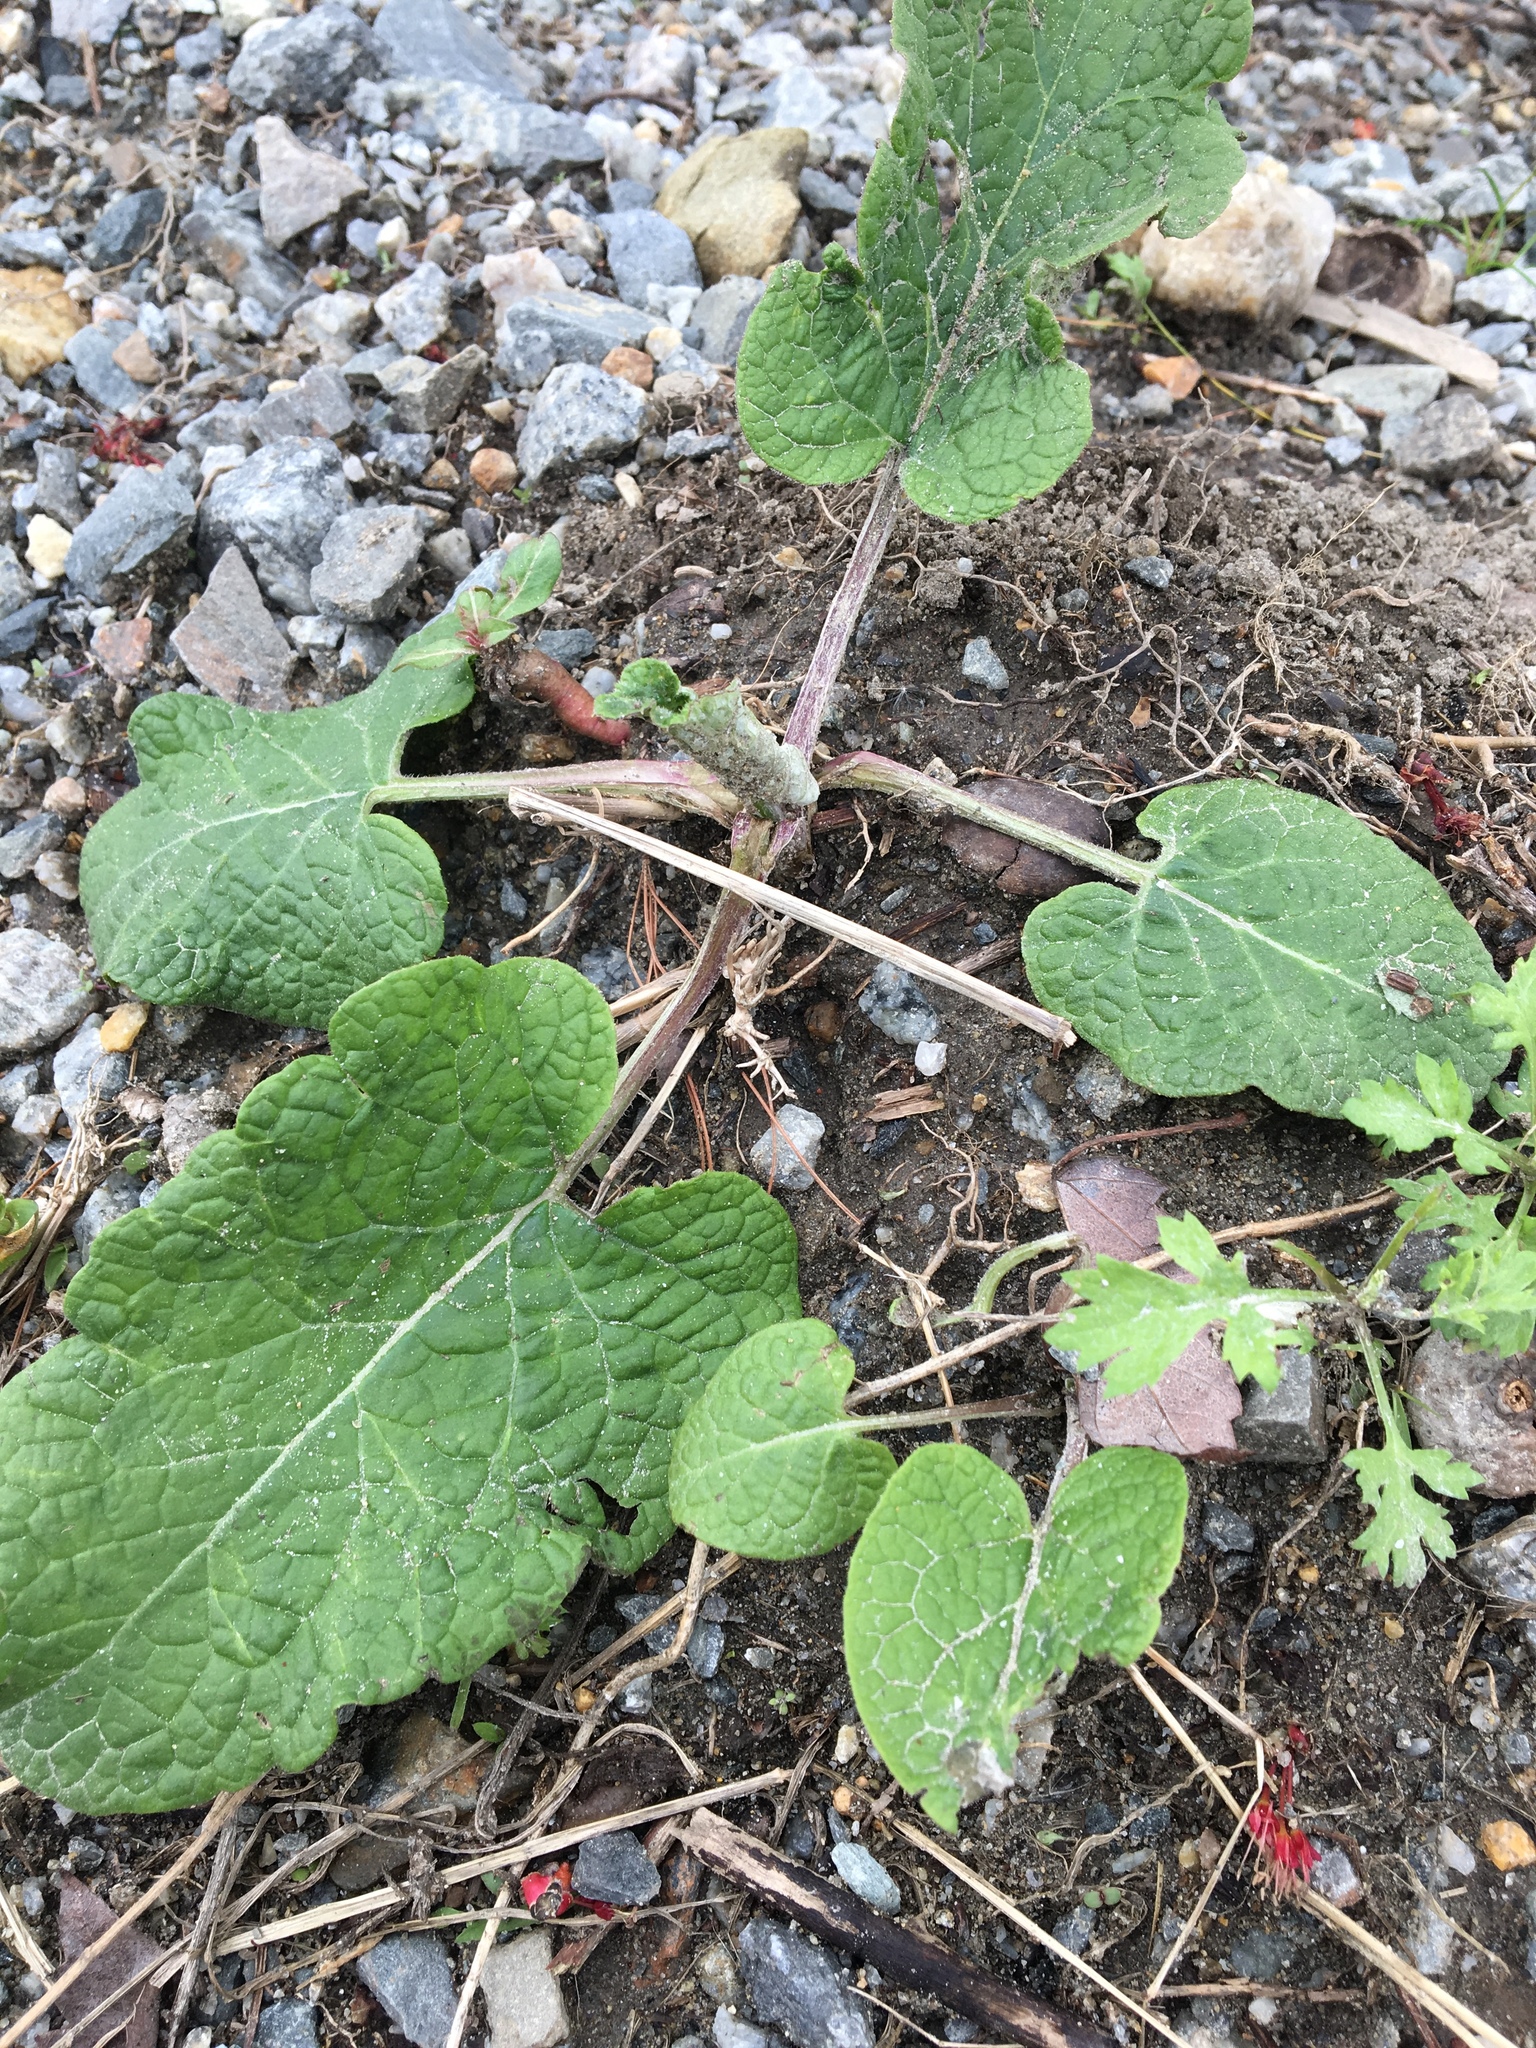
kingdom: Plantae
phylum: Tracheophyta
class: Magnoliopsida
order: Asterales
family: Asteraceae
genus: Arctium
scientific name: Arctium
